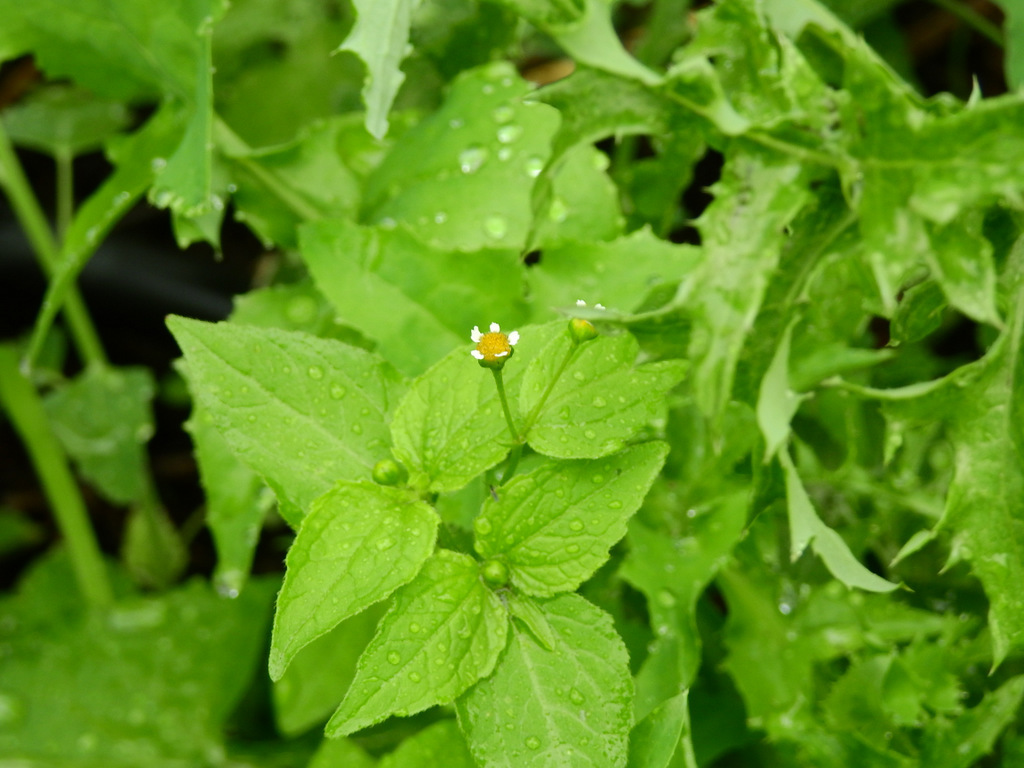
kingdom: Plantae
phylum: Tracheophyta
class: Magnoliopsida
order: Asterales
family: Asteraceae
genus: Galinsoga
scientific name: Galinsoga parviflora
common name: Gallant soldier
